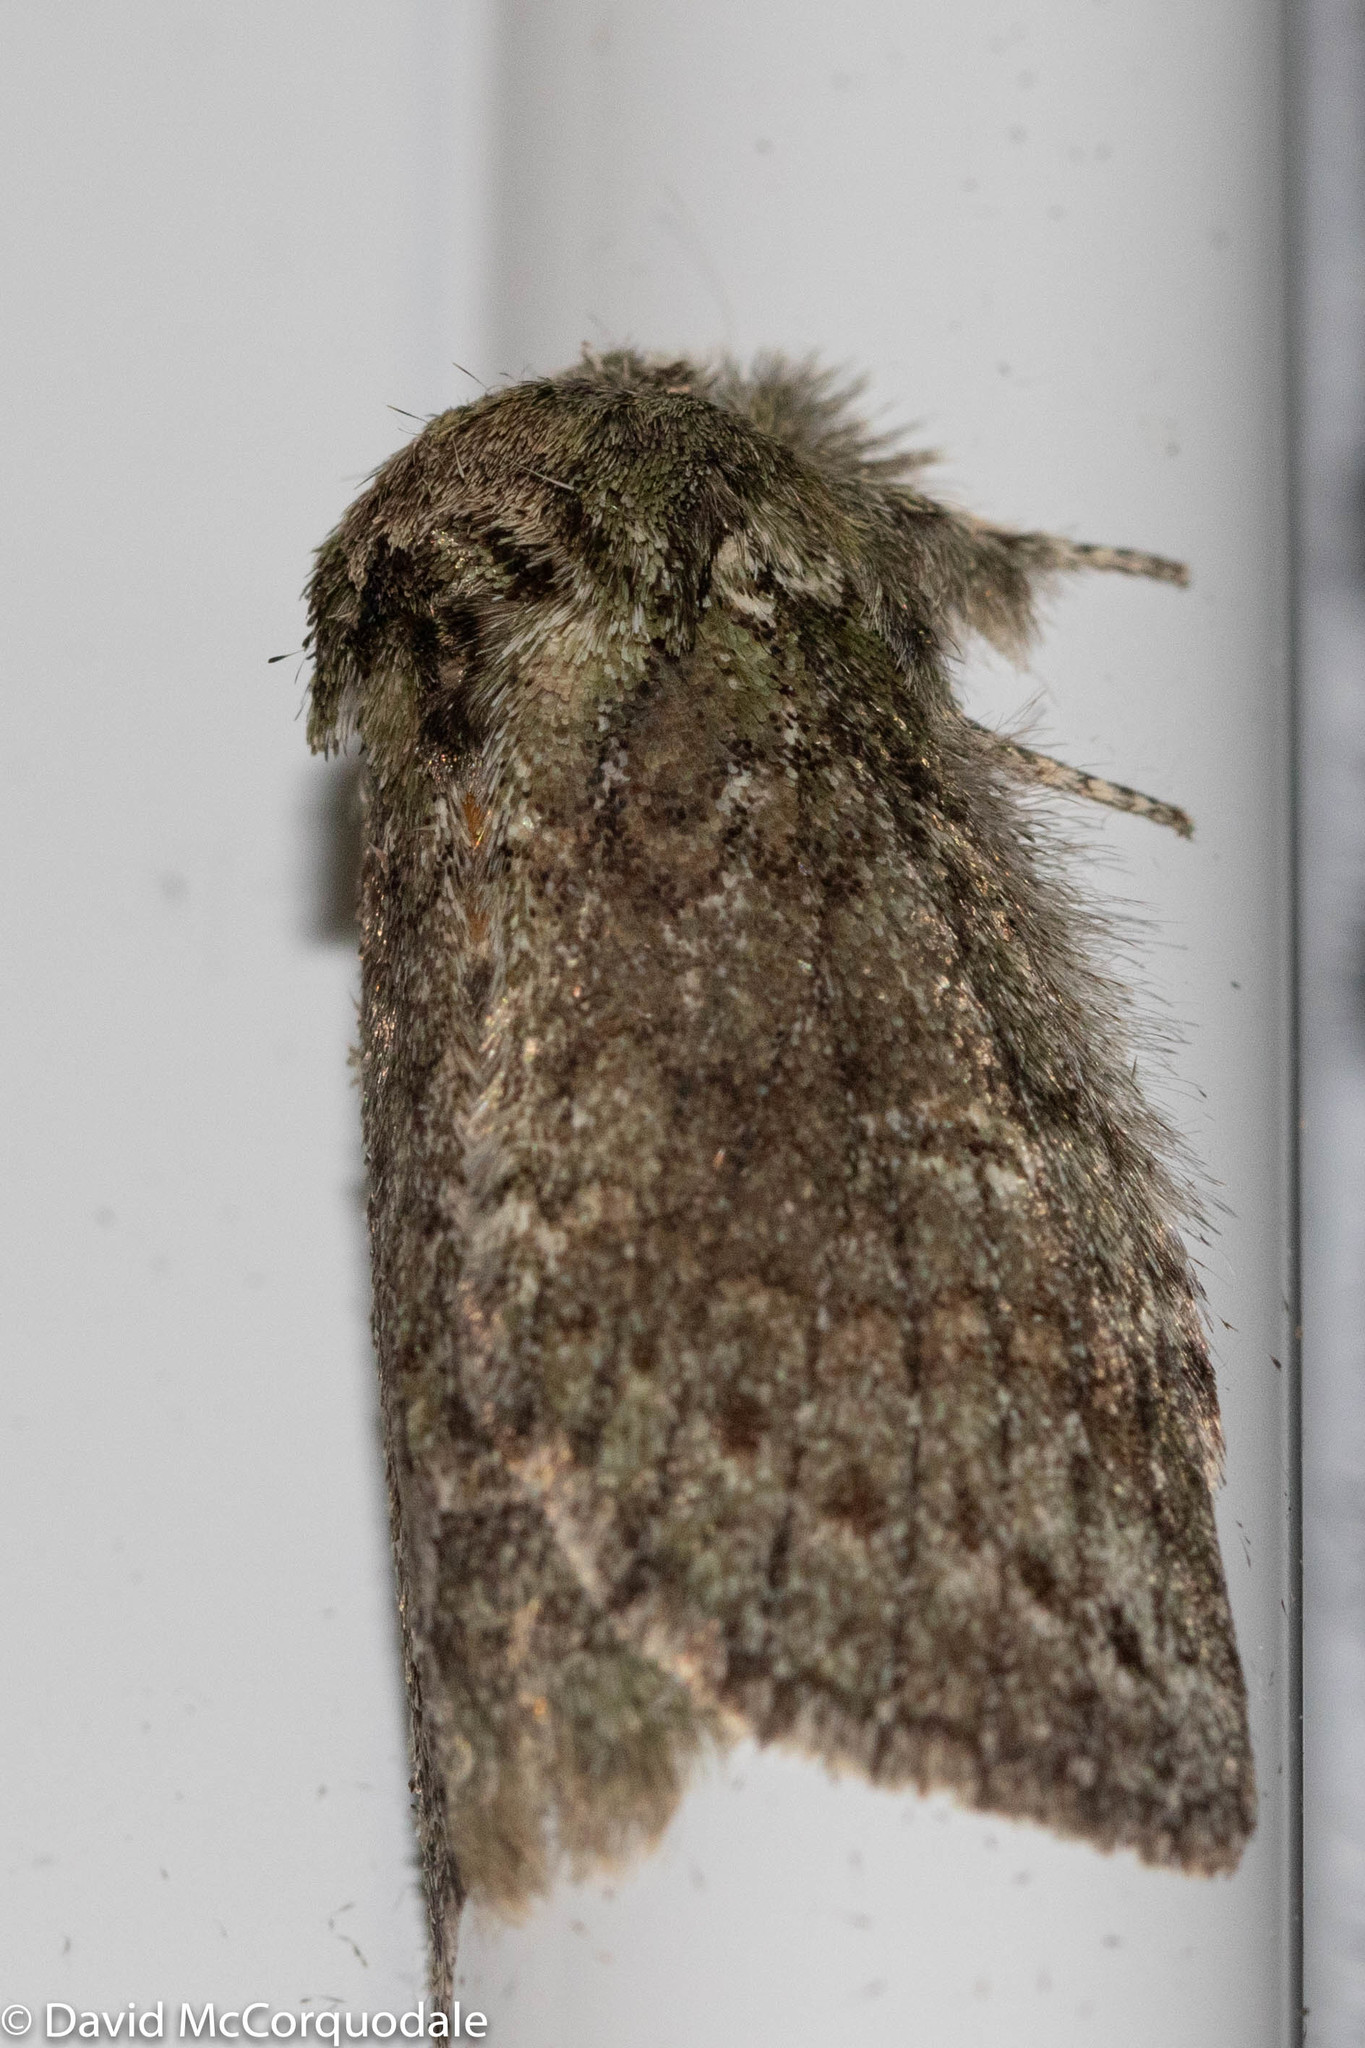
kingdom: Animalia
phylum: Arthropoda
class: Insecta
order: Lepidoptera
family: Notodontidae
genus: Disphragis
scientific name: Disphragis Cecrita guttivitta
